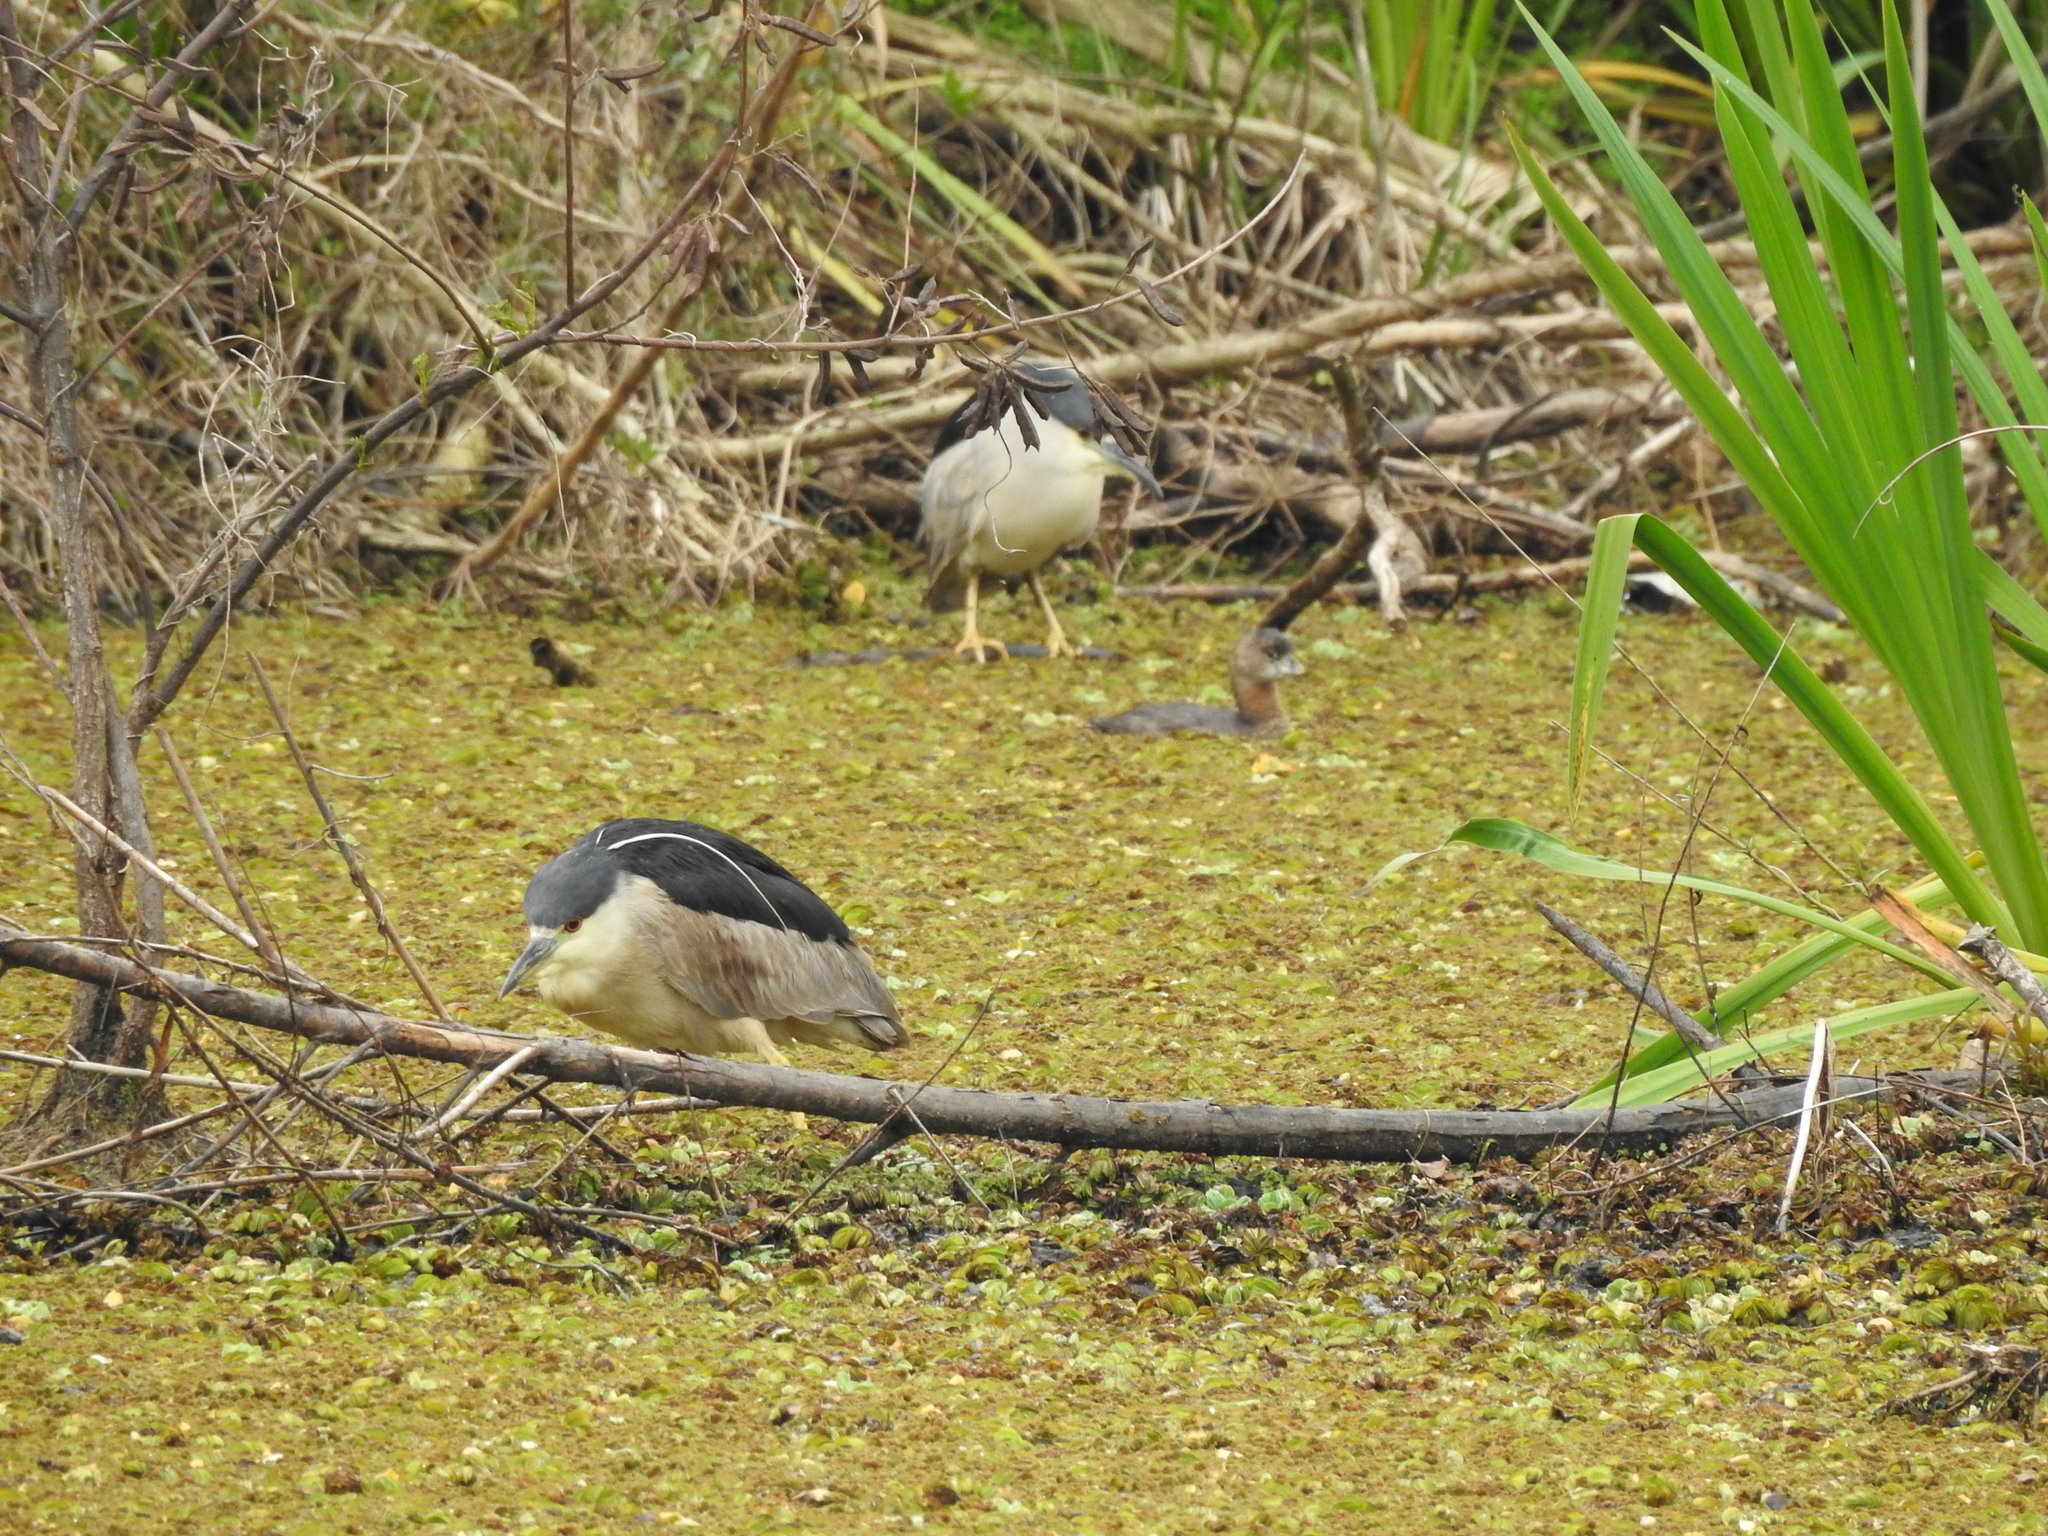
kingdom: Animalia
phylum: Chordata
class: Aves
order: Pelecaniformes
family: Ardeidae
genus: Nycticorax
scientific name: Nycticorax nycticorax
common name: Black-crowned night heron
